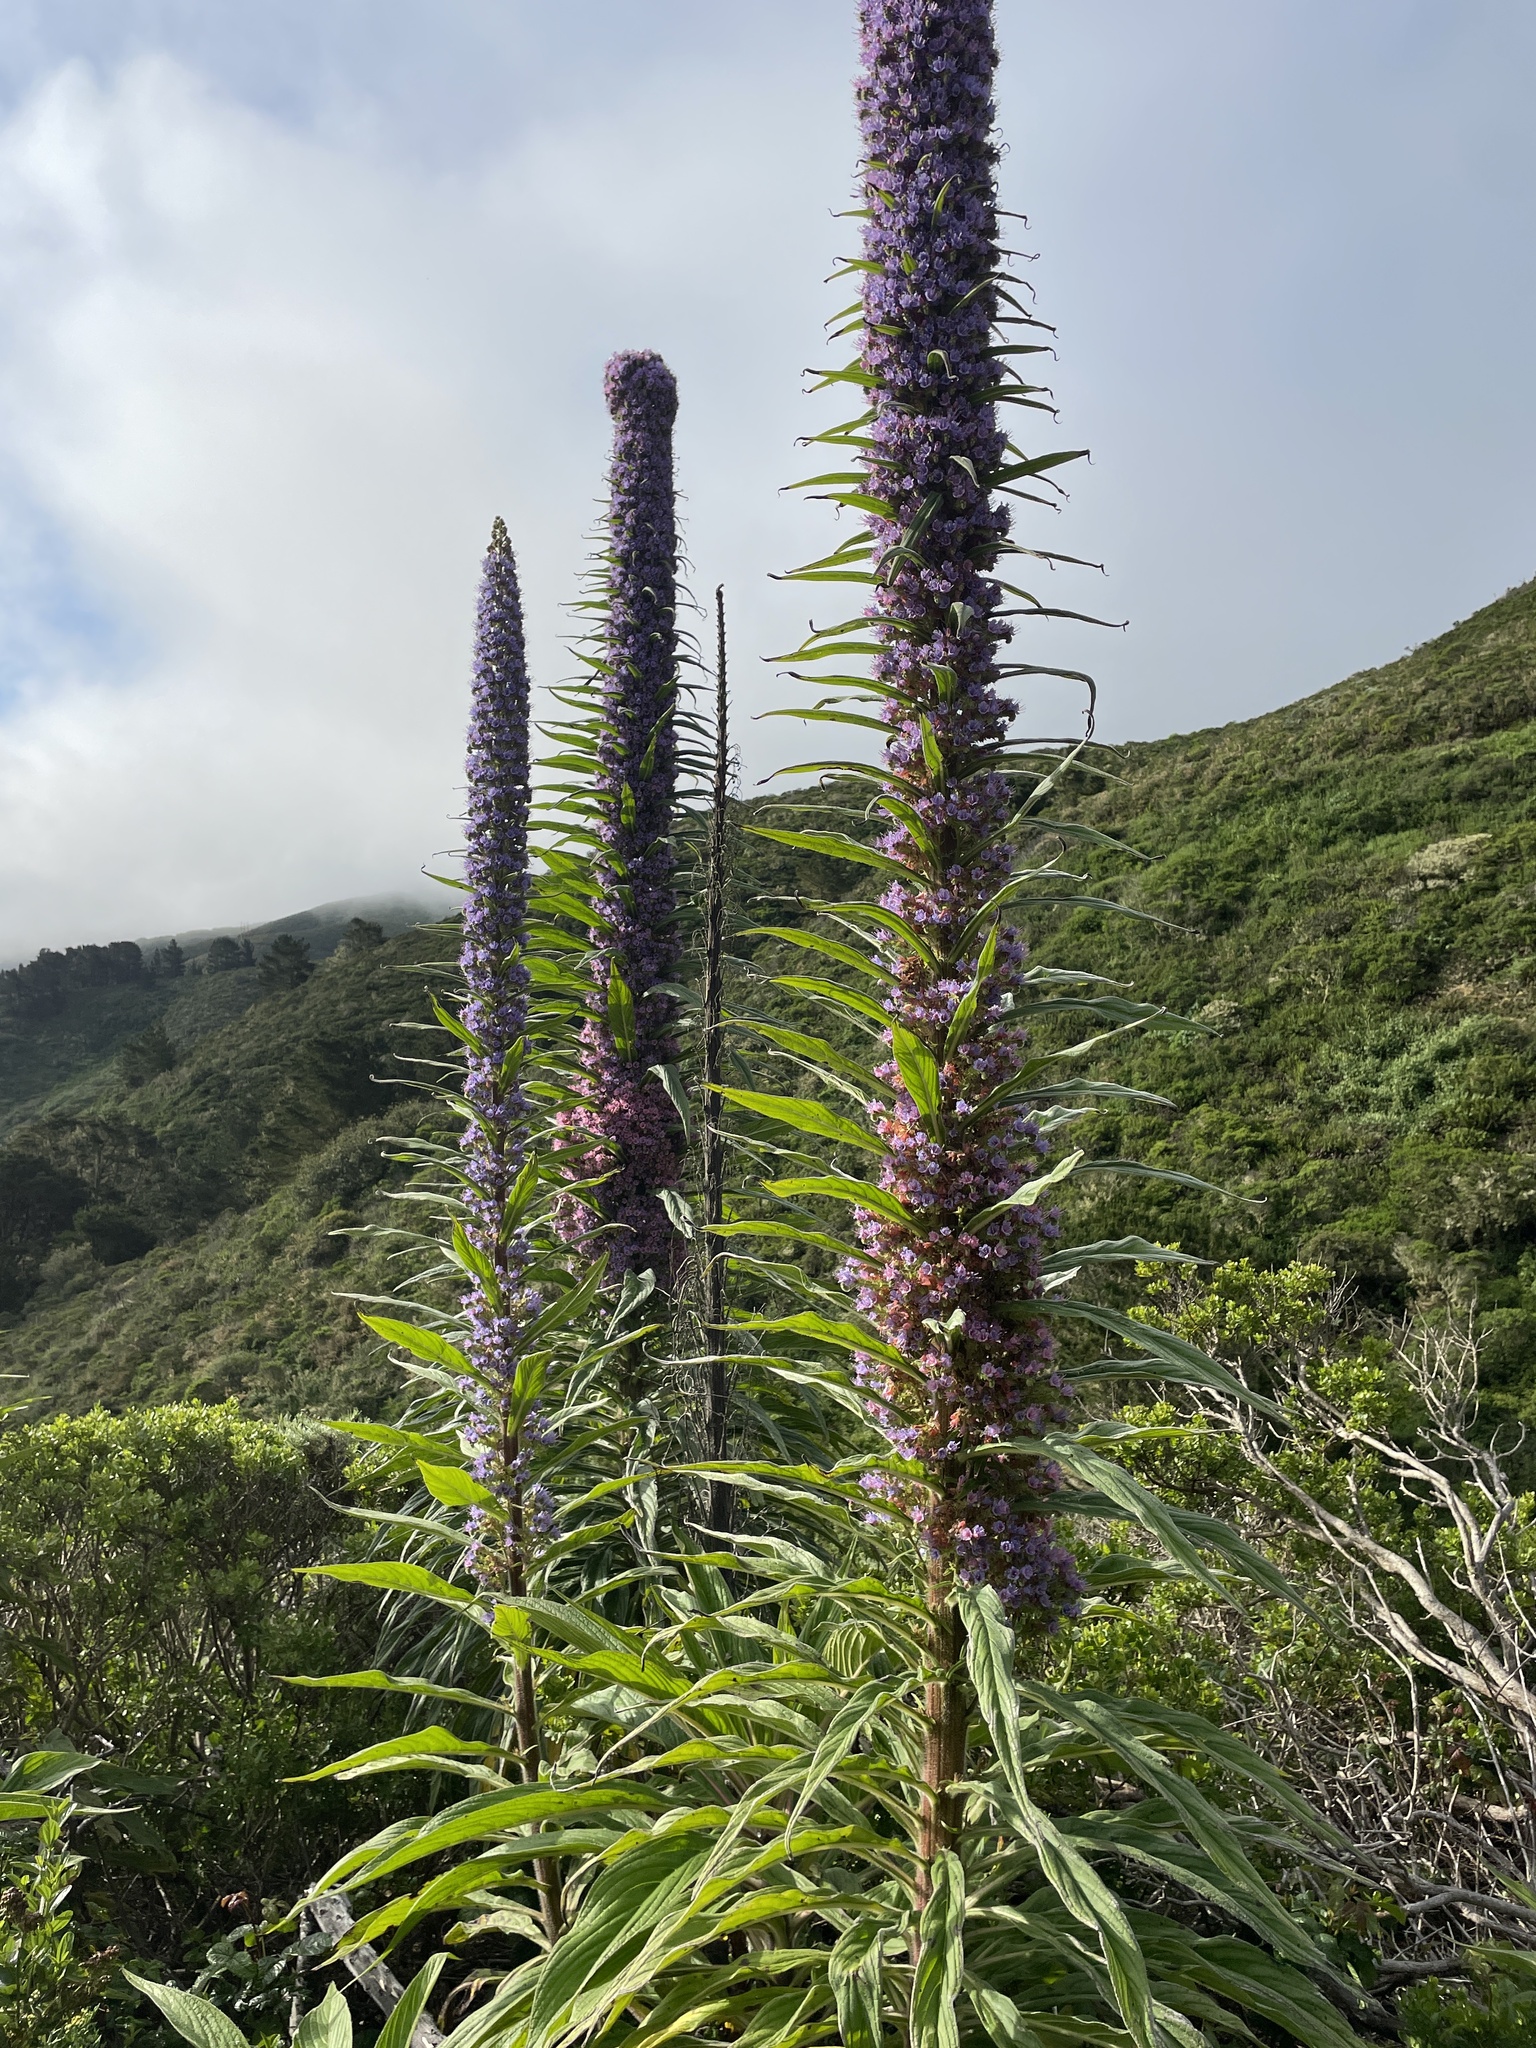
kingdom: Plantae
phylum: Tracheophyta
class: Magnoliopsida
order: Boraginales
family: Boraginaceae
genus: Echium
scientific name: Echium pininana
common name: Giant viper's-bugloss
